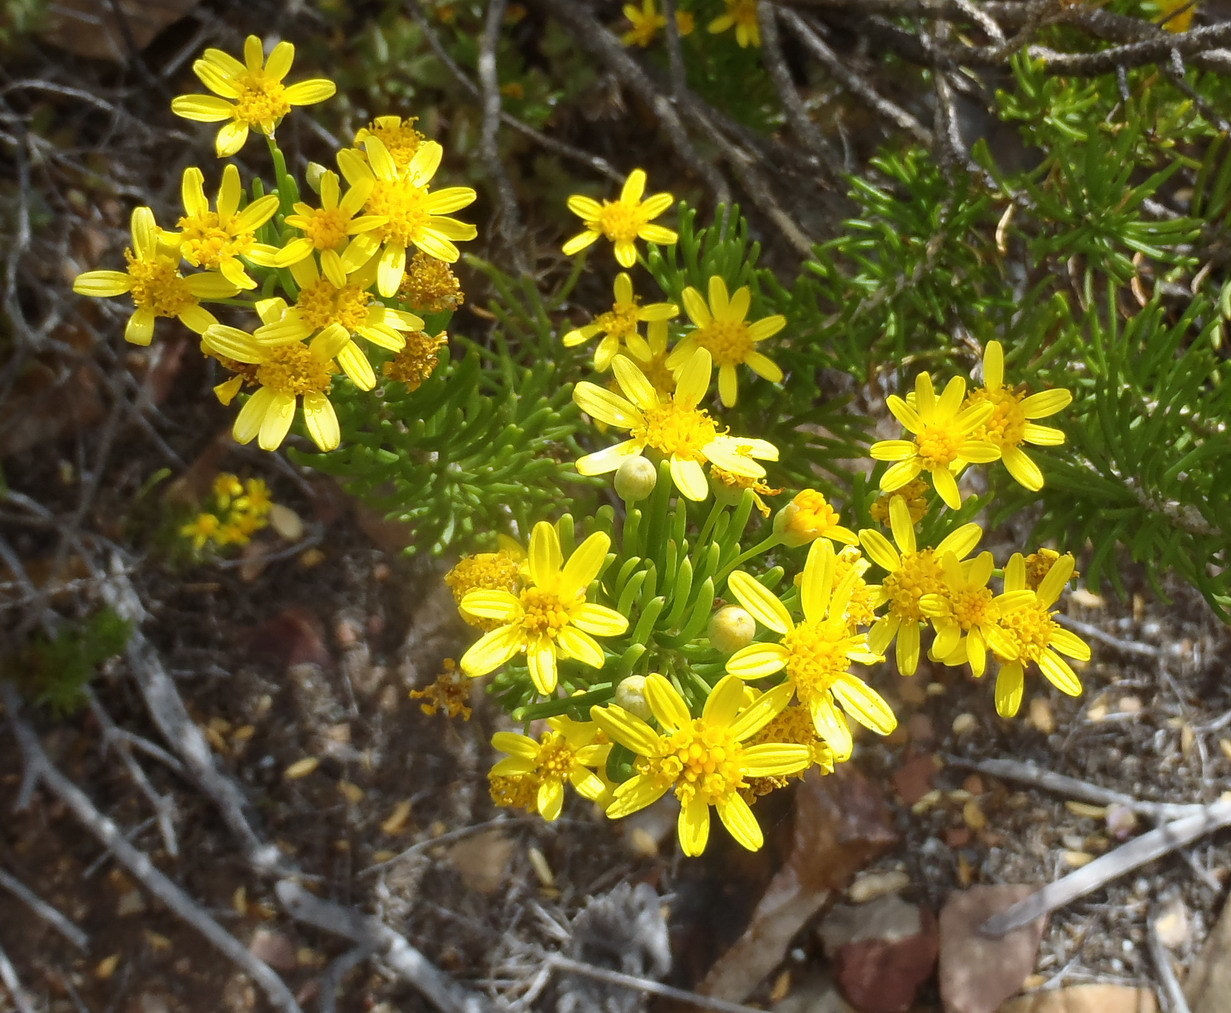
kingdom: Plantae
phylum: Tracheophyta
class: Magnoliopsida
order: Asterales
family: Asteraceae
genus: Euryops
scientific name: Euryops rehmannii
